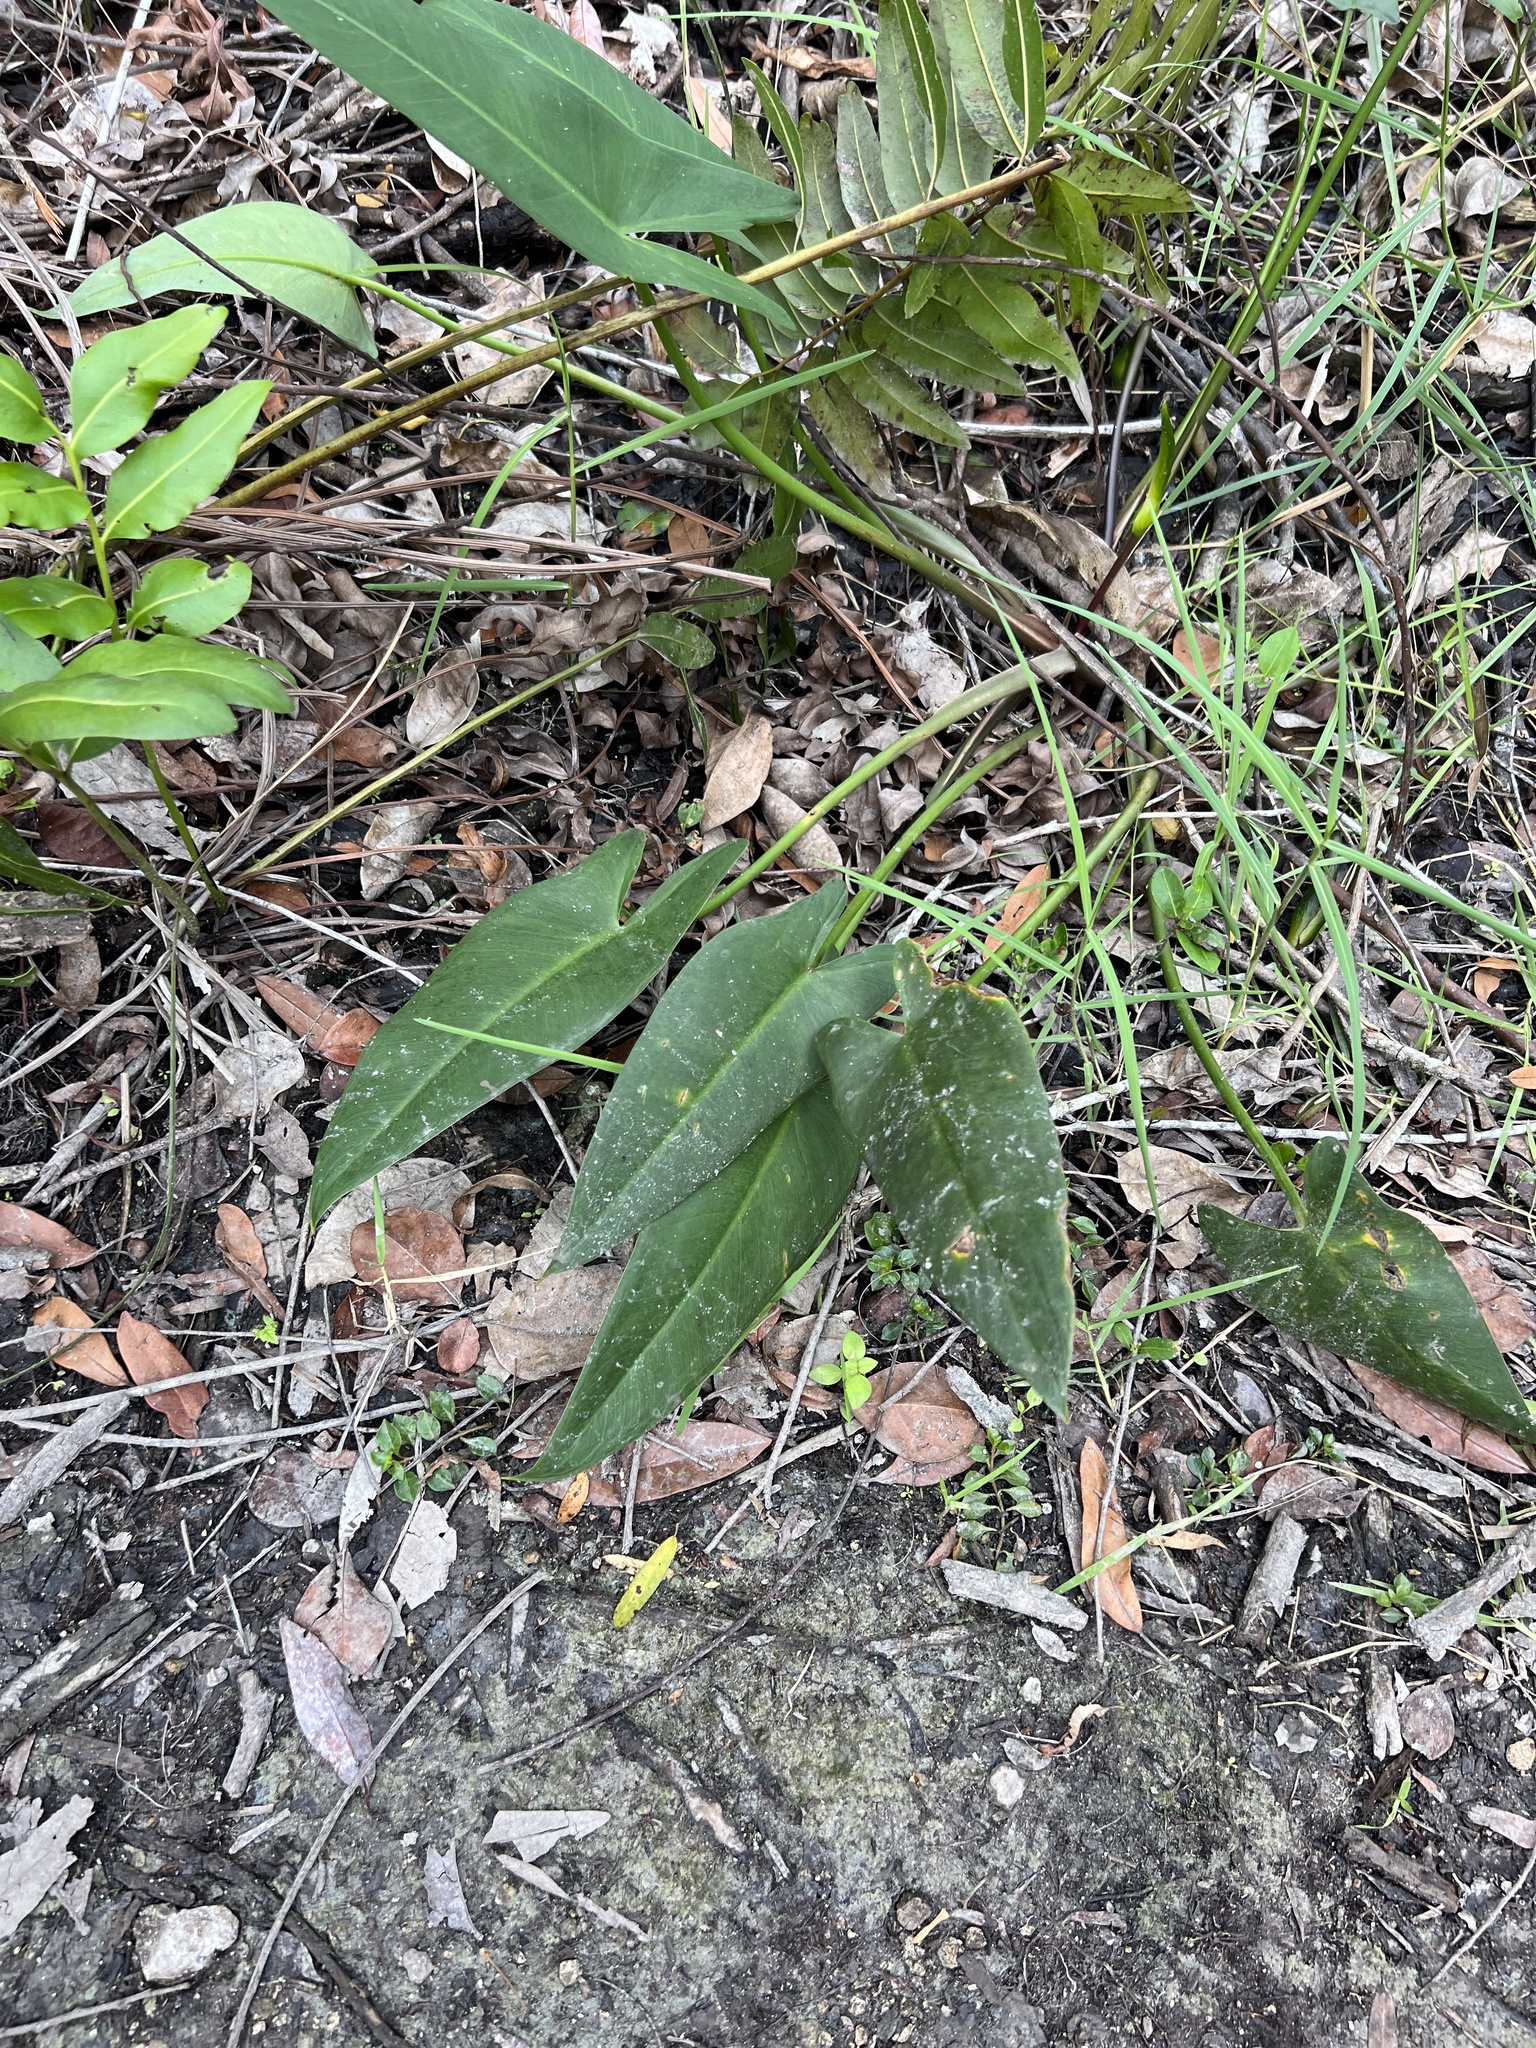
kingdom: Plantae
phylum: Tracheophyta
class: Liliopsida
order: Alismatales
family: Araceae
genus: Peltandra
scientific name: Peltandra virginica
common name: Arrow arum
